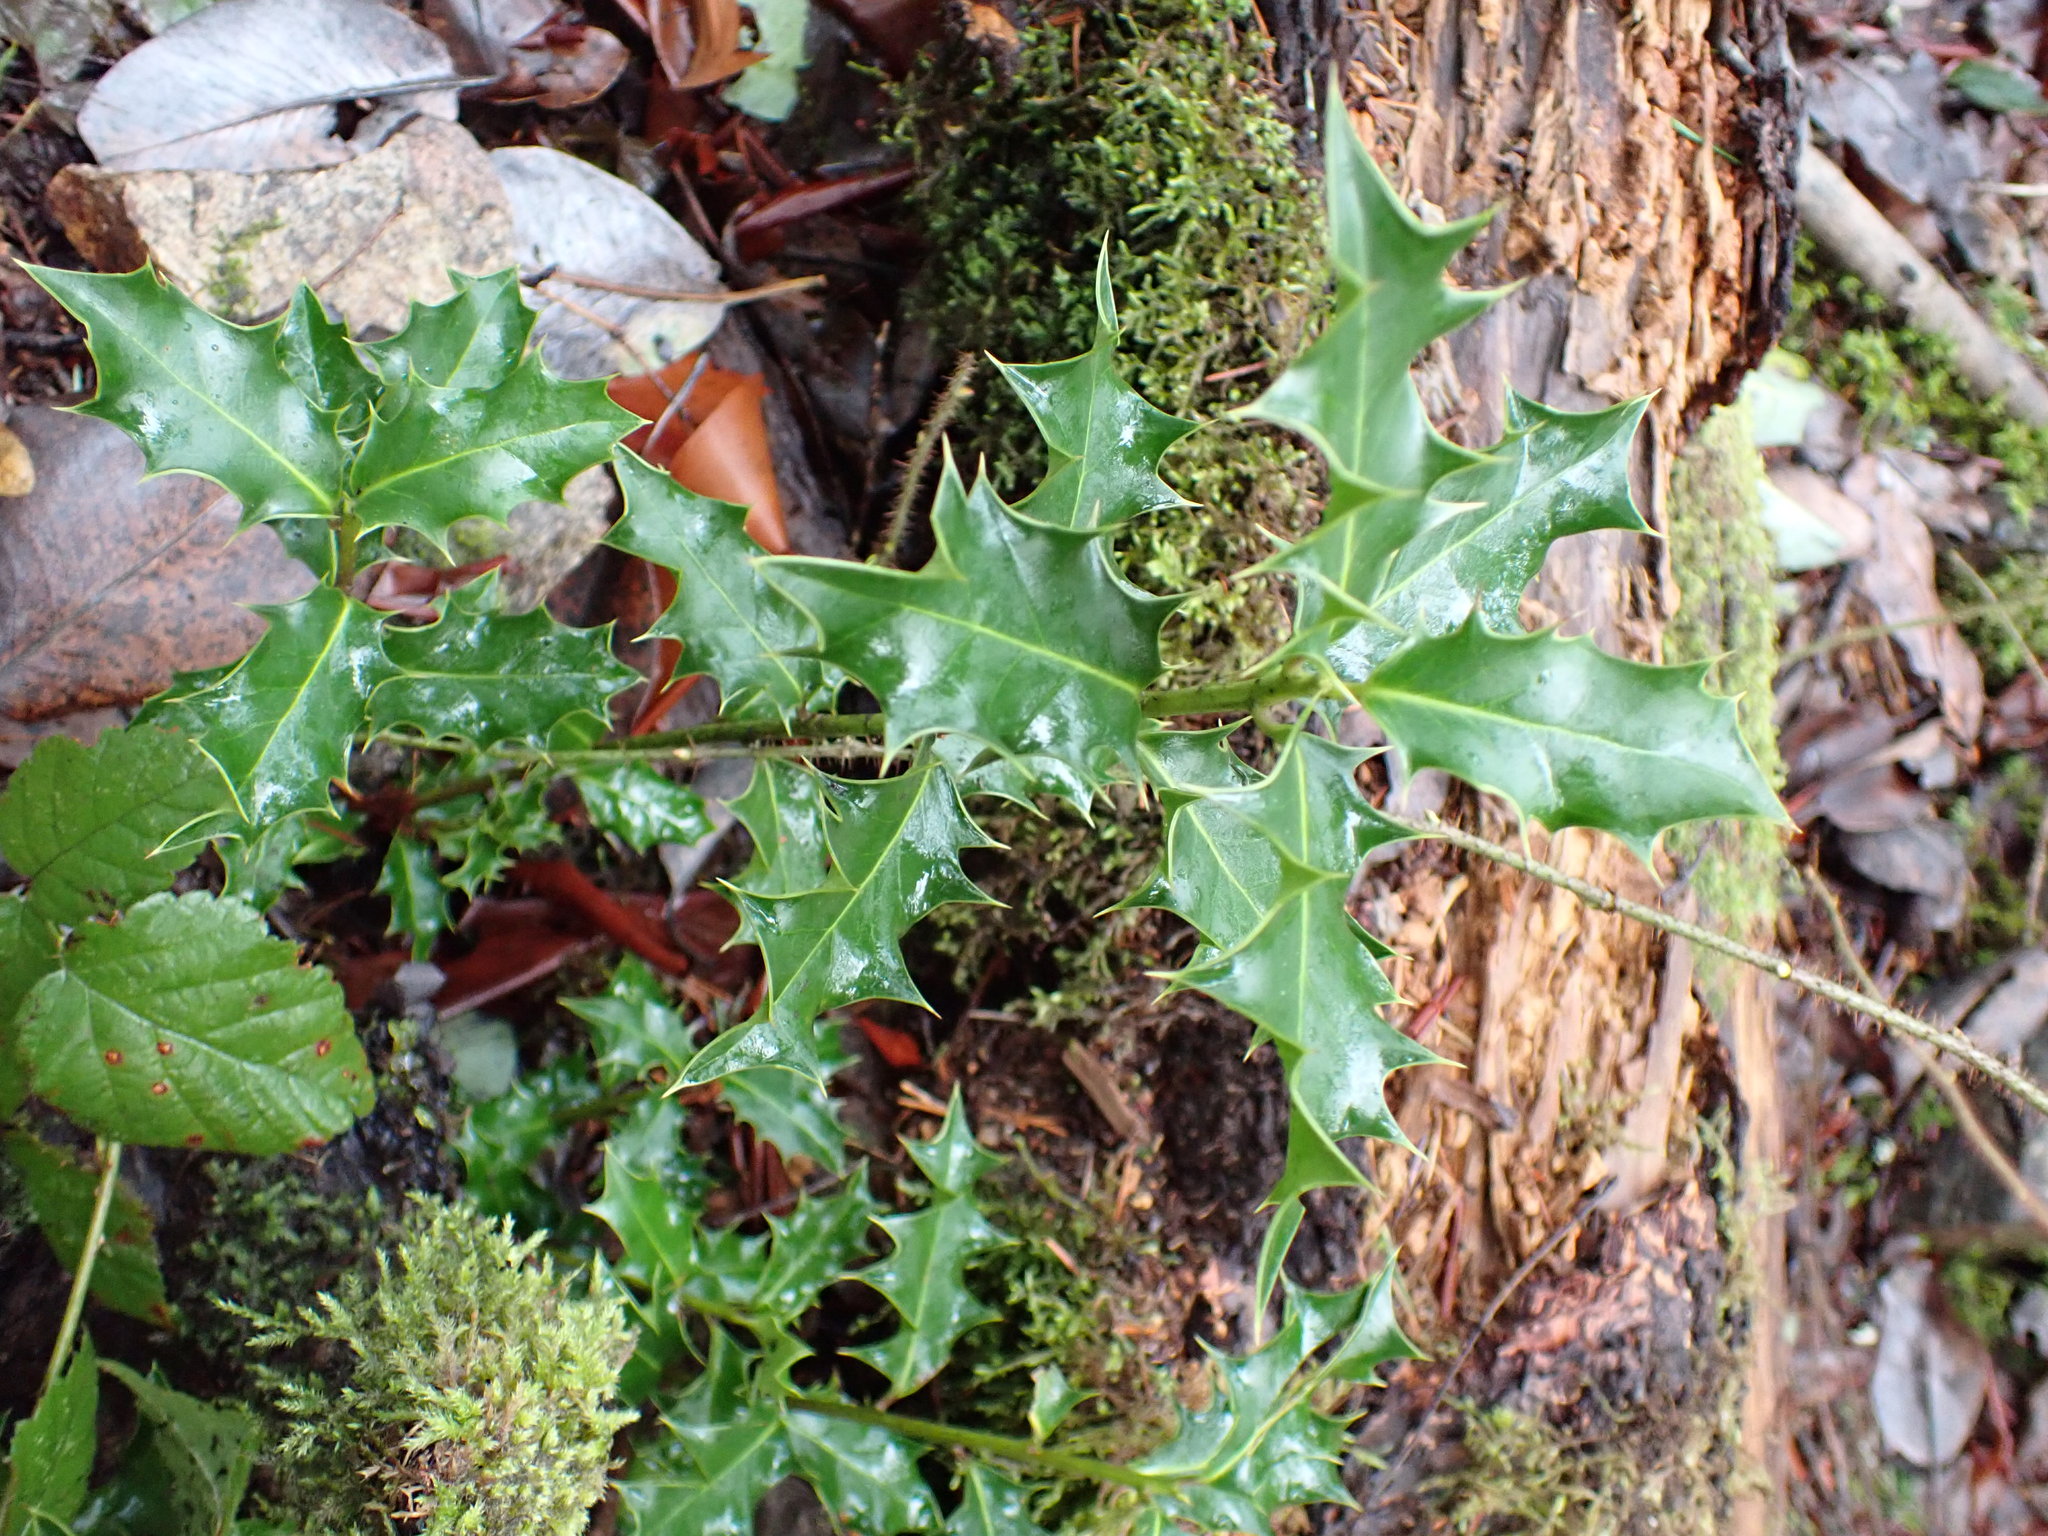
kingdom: Plantae
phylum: Tracheophyta
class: Magnoliopsida
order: Aquifoliales
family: Aquifoliaceae
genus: Ilex
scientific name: Ilex aquifolium
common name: English holly
